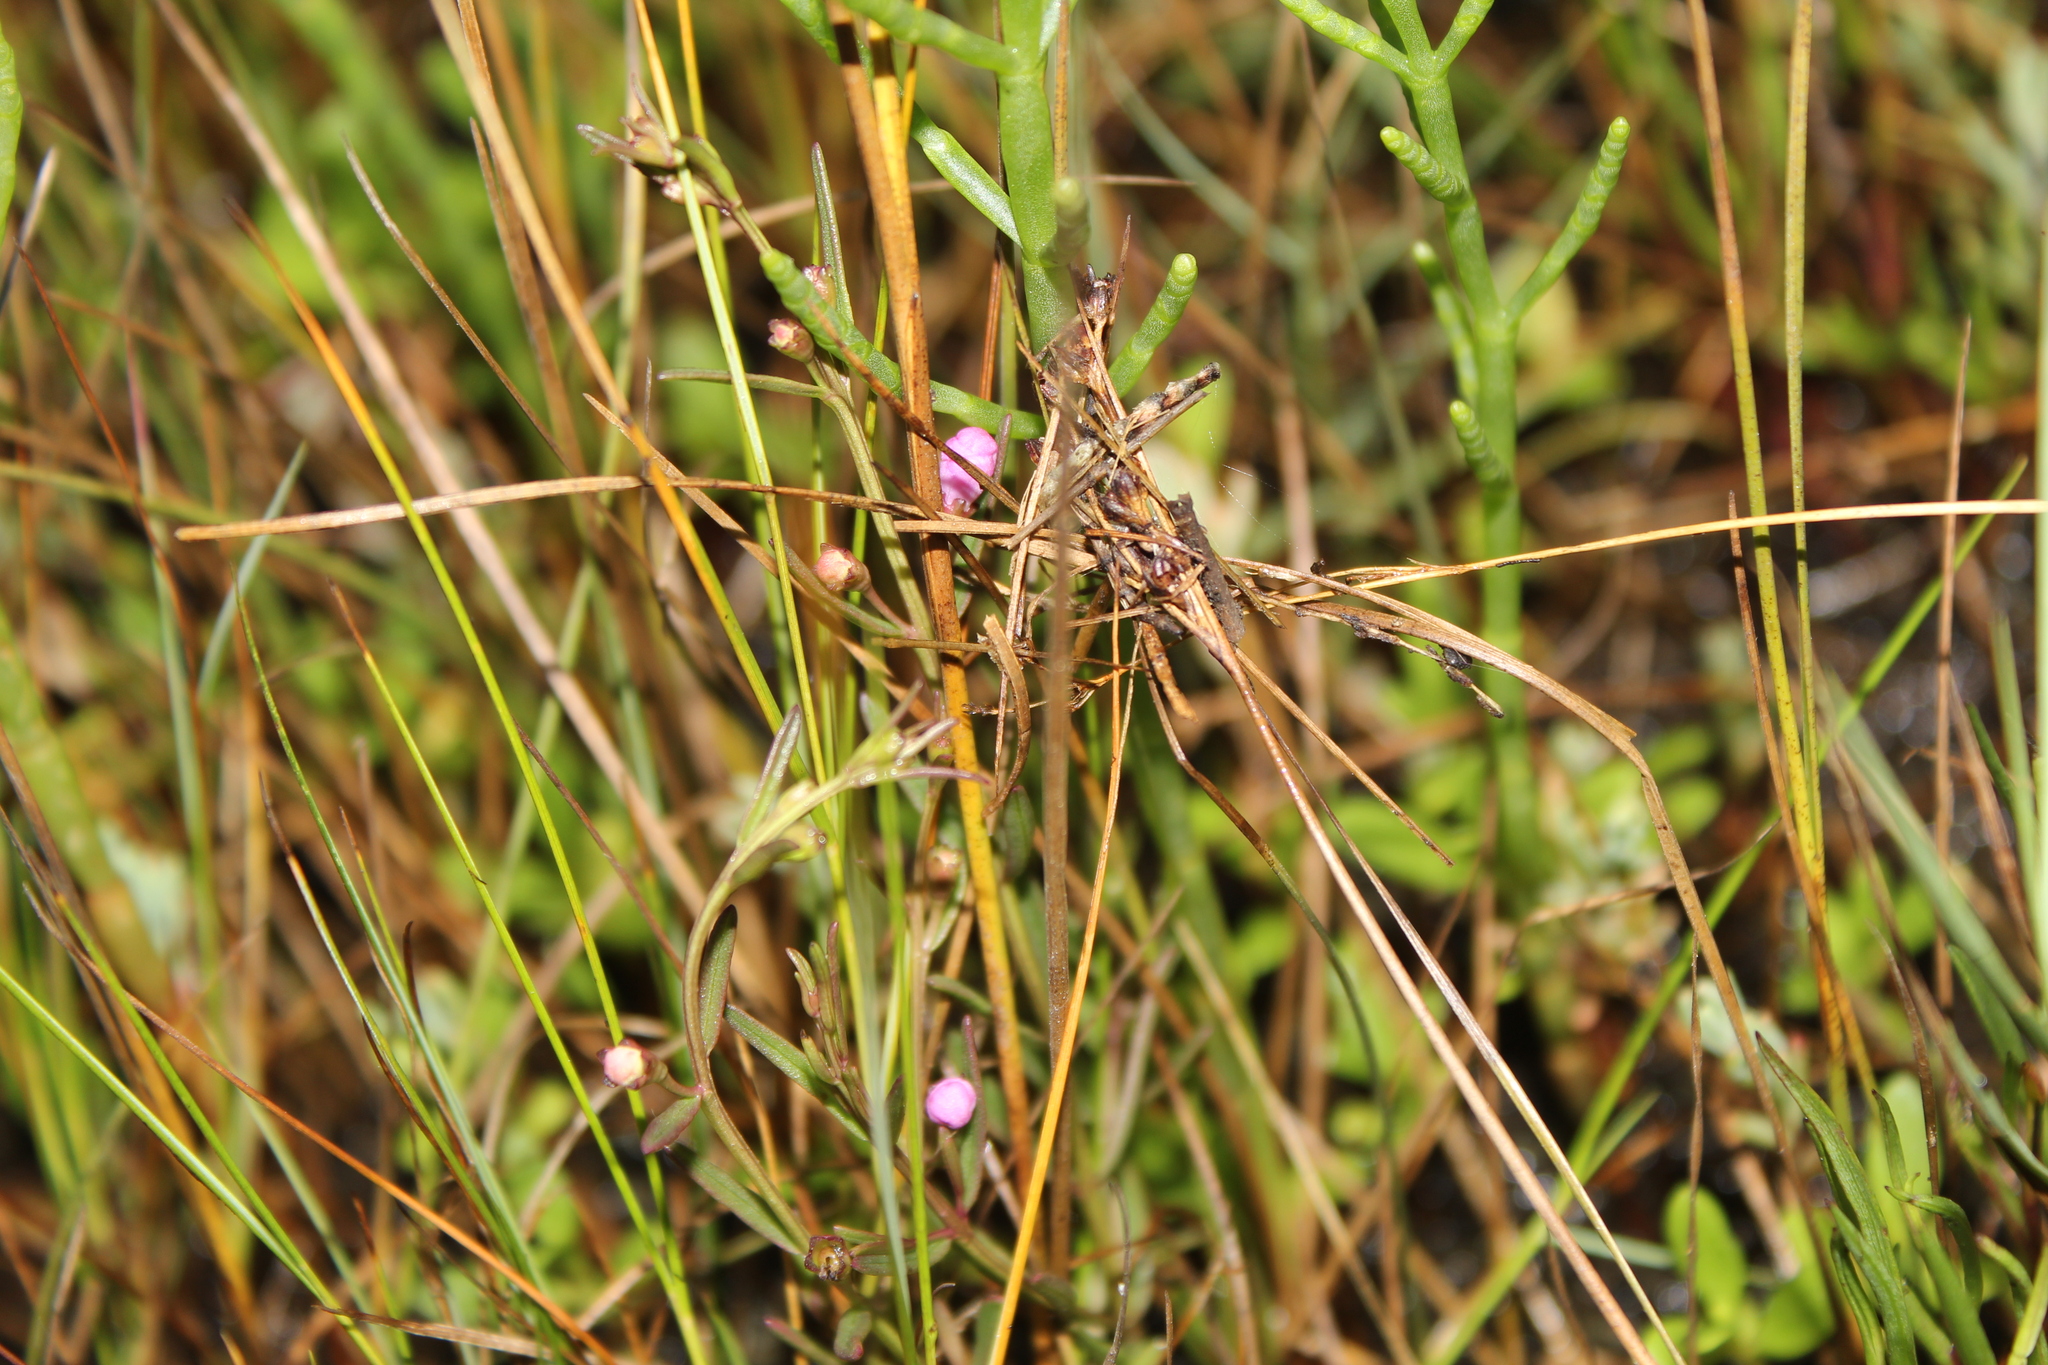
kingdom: Plantae
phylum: Tracheophyta
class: Magnoliopsida
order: Lamiales
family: Orobanchaceae
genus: Agalinis
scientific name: Agalinis maritima
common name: Saltmarsh agalinis
